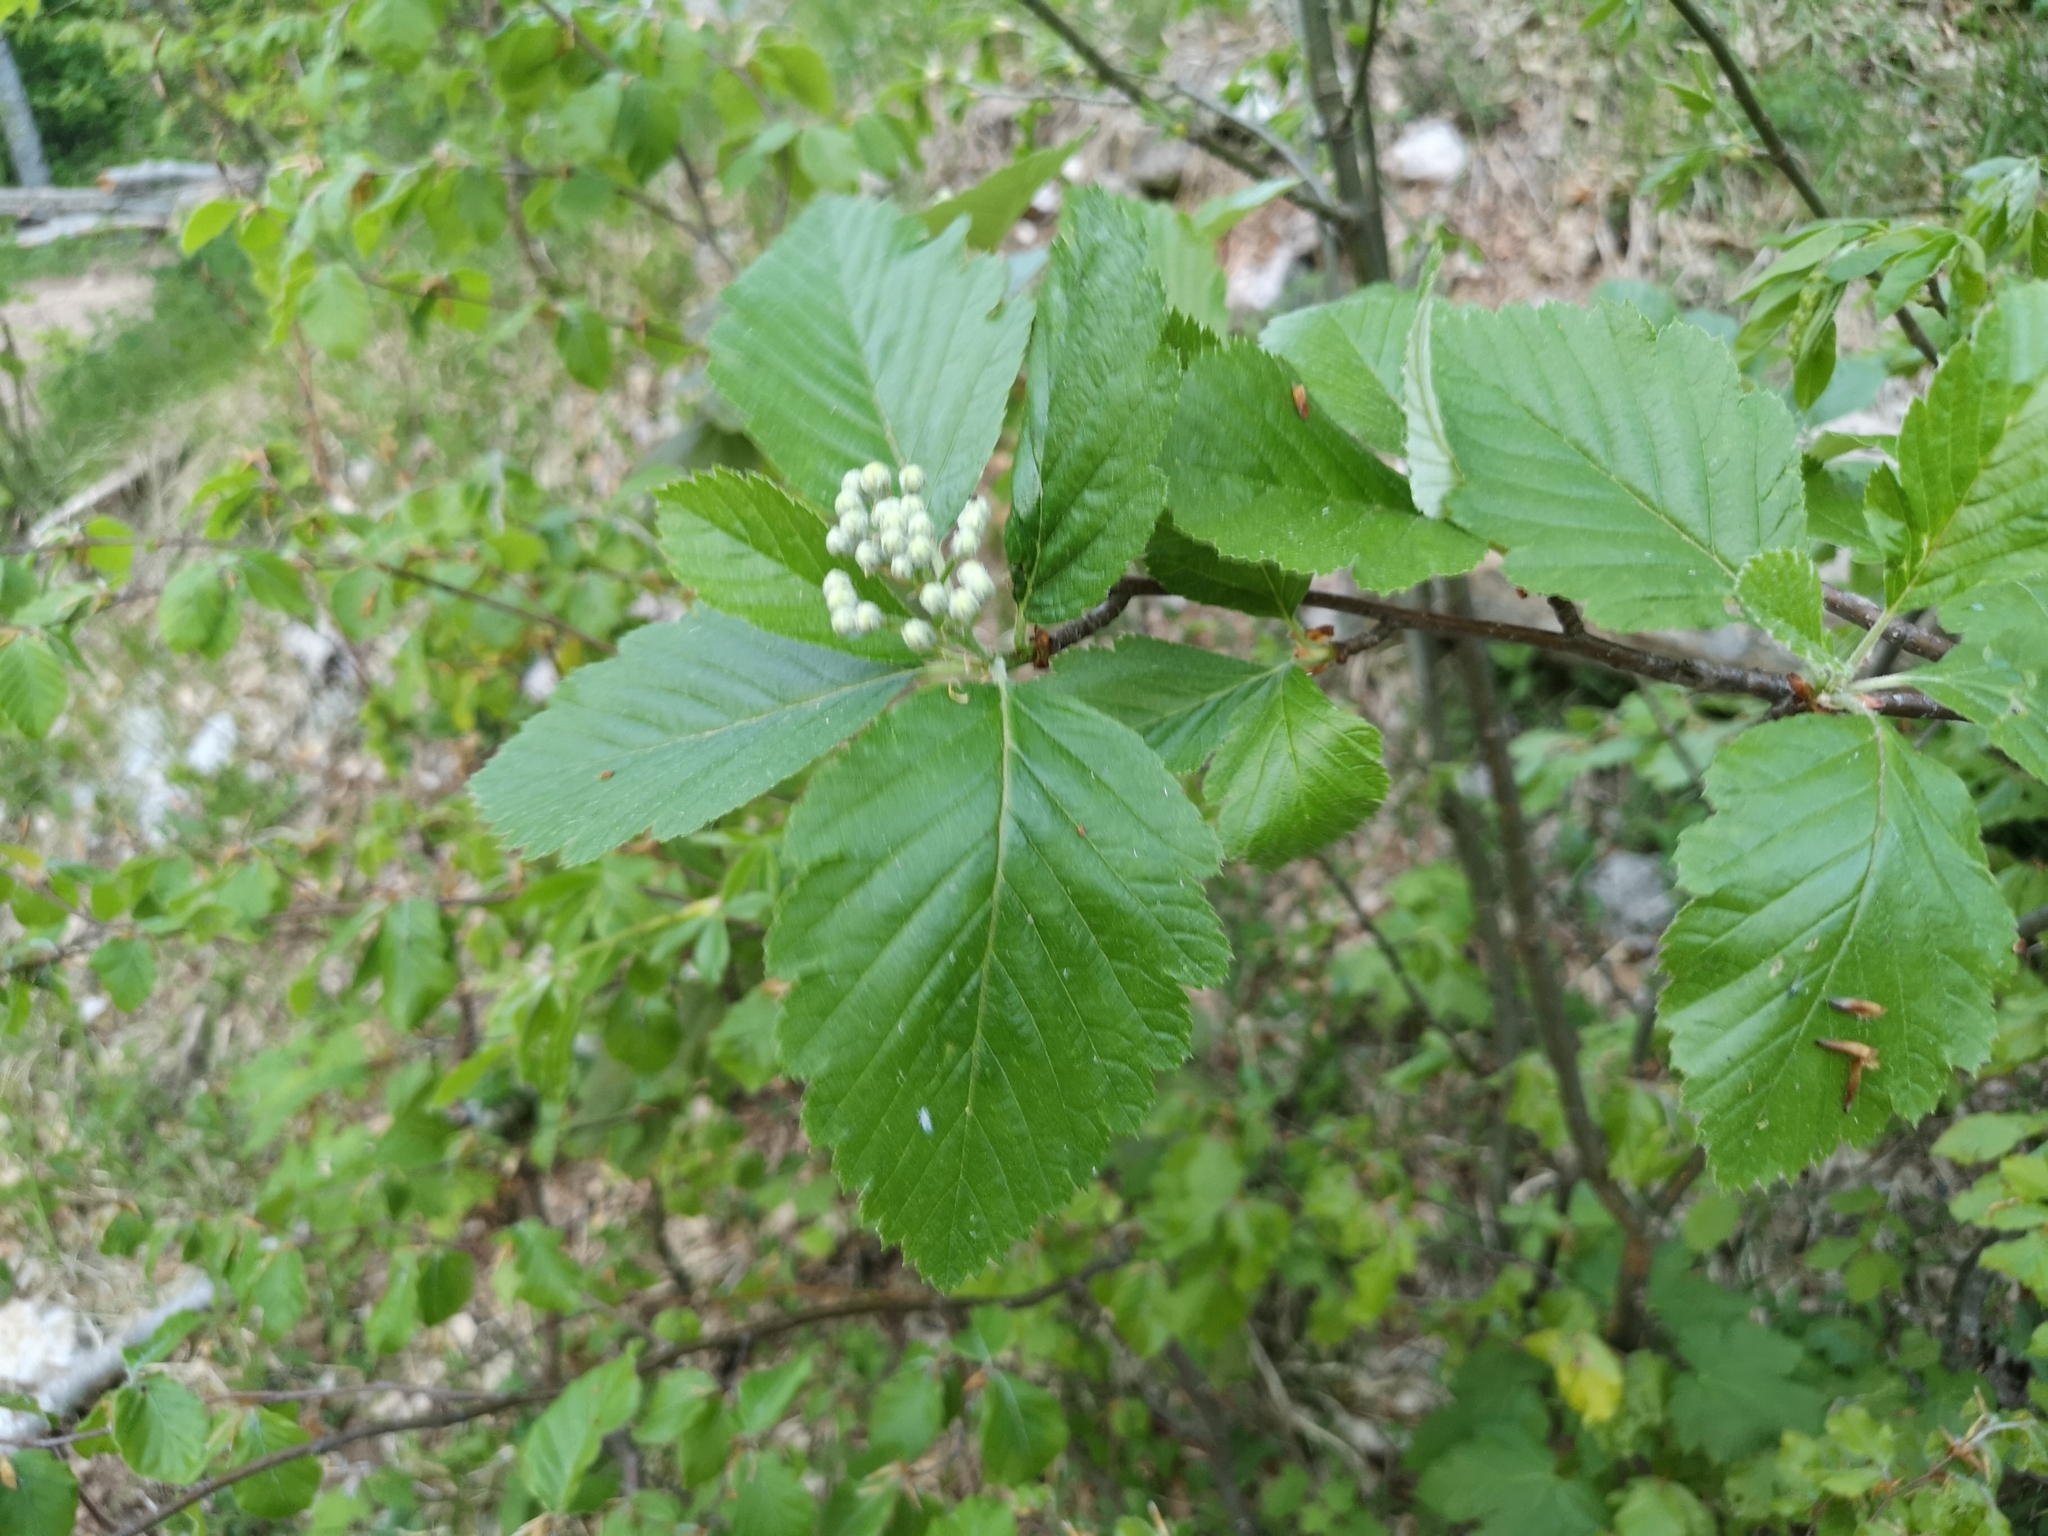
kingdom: Plantae
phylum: Tracheophyta
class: Magnoliopsida
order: Rosales
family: Rosaceae
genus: Hedlundia
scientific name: Hedlundia austriaca
